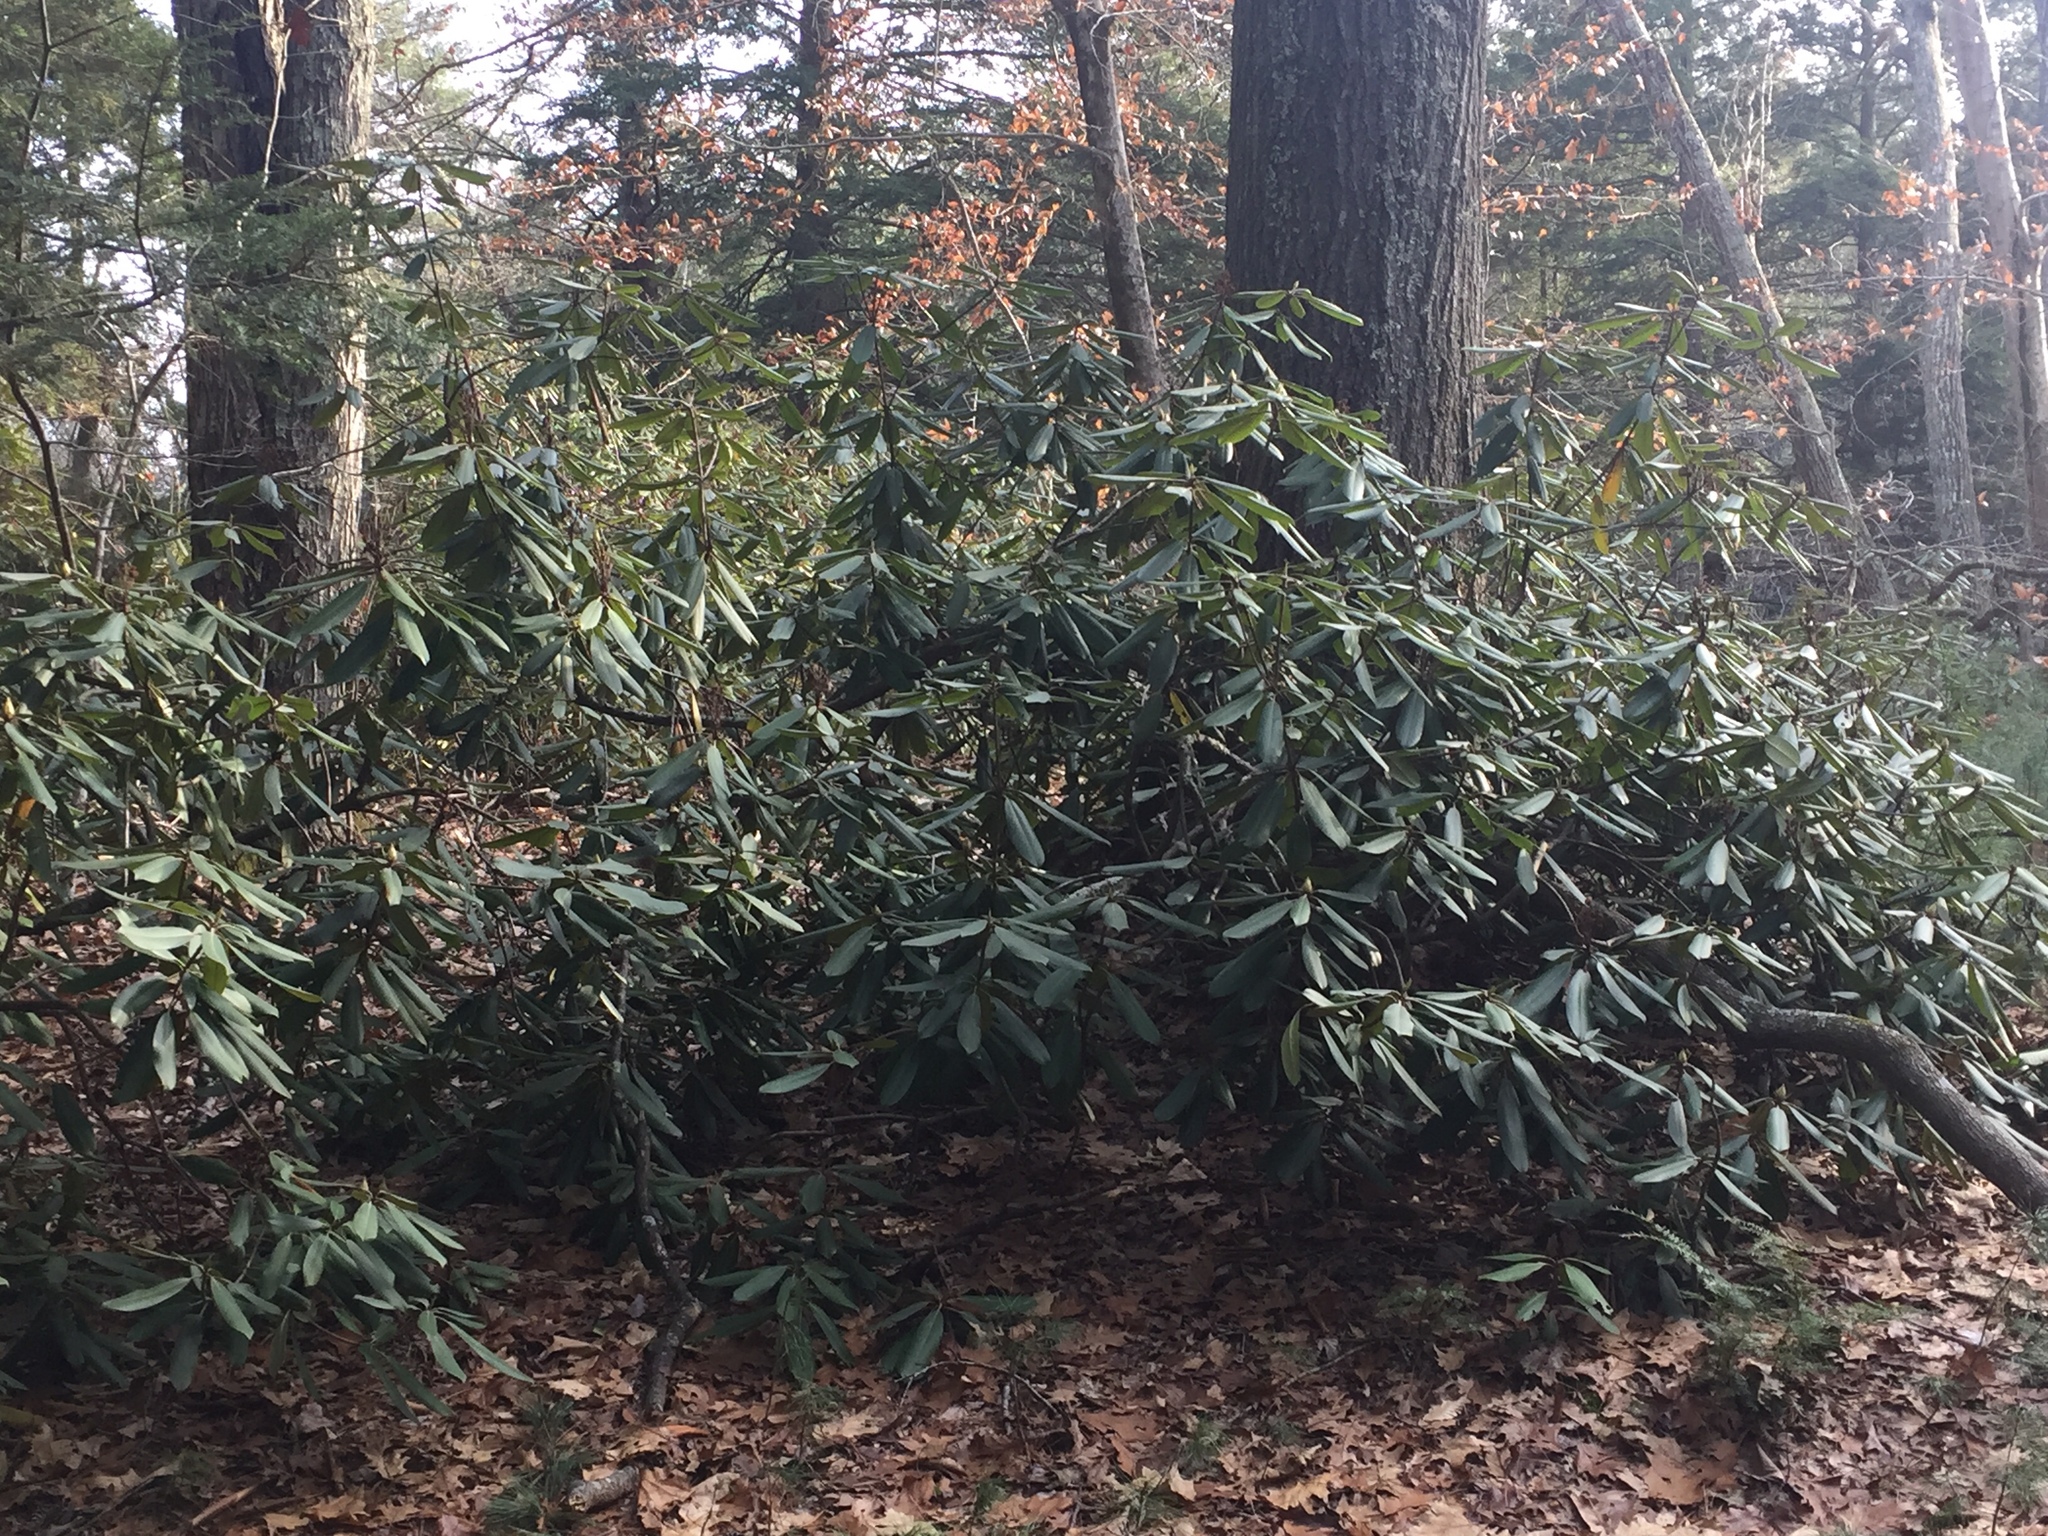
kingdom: Plantae
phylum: Tracheophyta
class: Magnoliopsida
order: Ericales
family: Ericaceae
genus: Rhododendron
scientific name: Rhododendron maximum
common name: Great rhododendron
